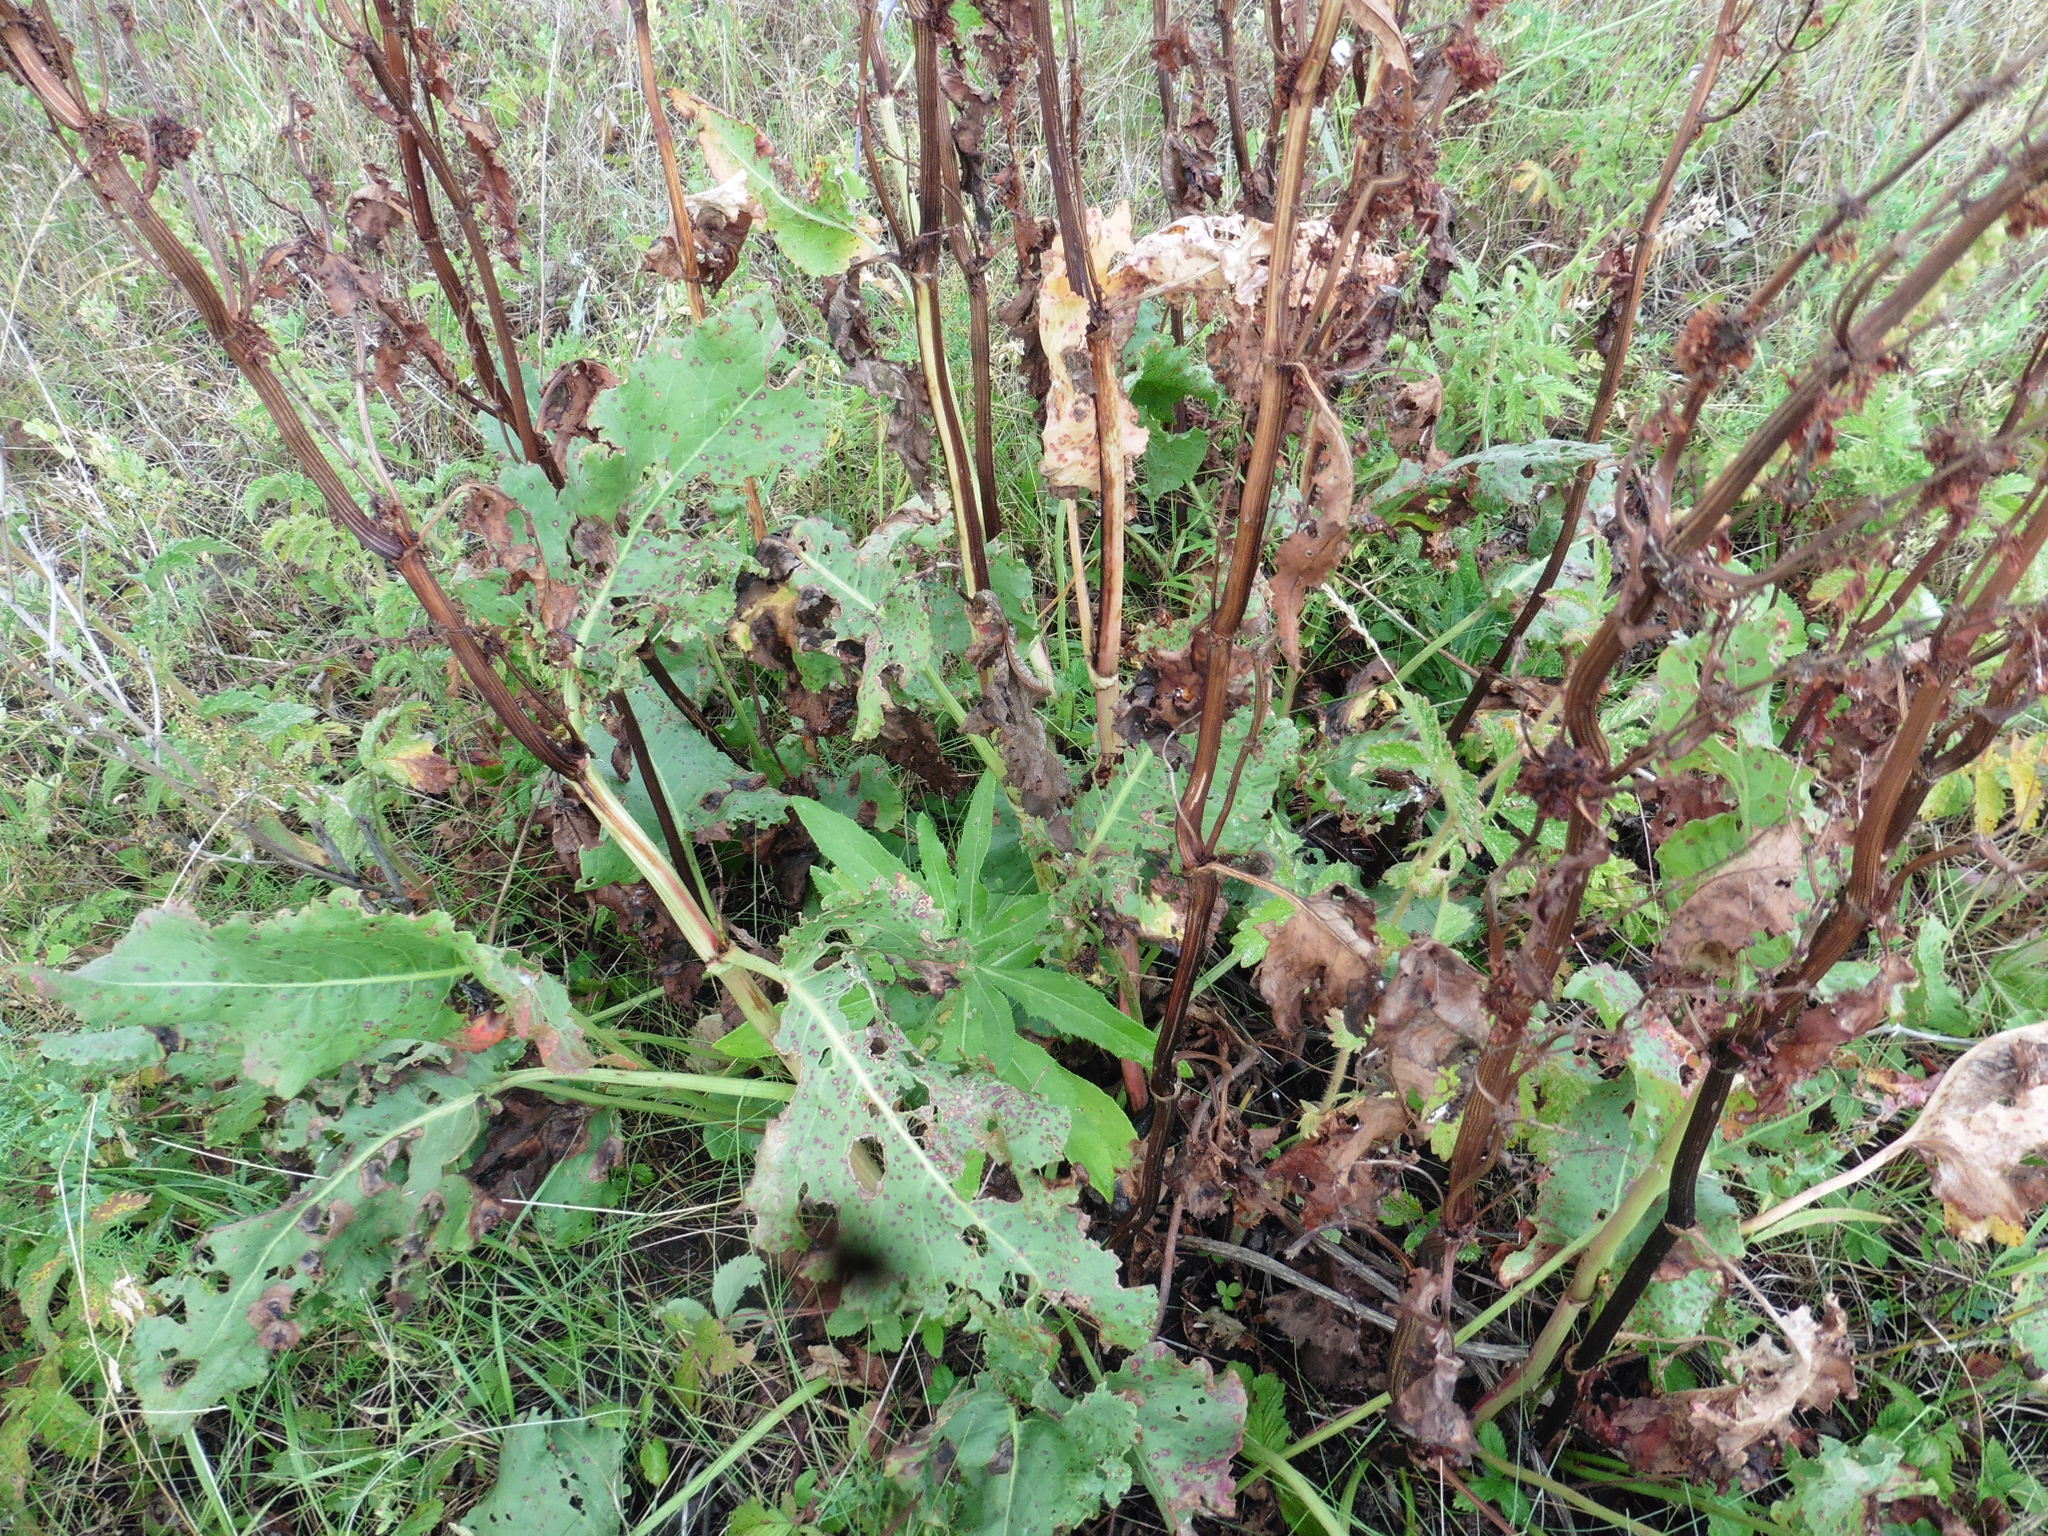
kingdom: Plantae
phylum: Tracheophyta
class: Magnoliopsida
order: Caryophyllales
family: Polygonaceae
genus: Rumex
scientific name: Rumex confertus
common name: Russian dock
